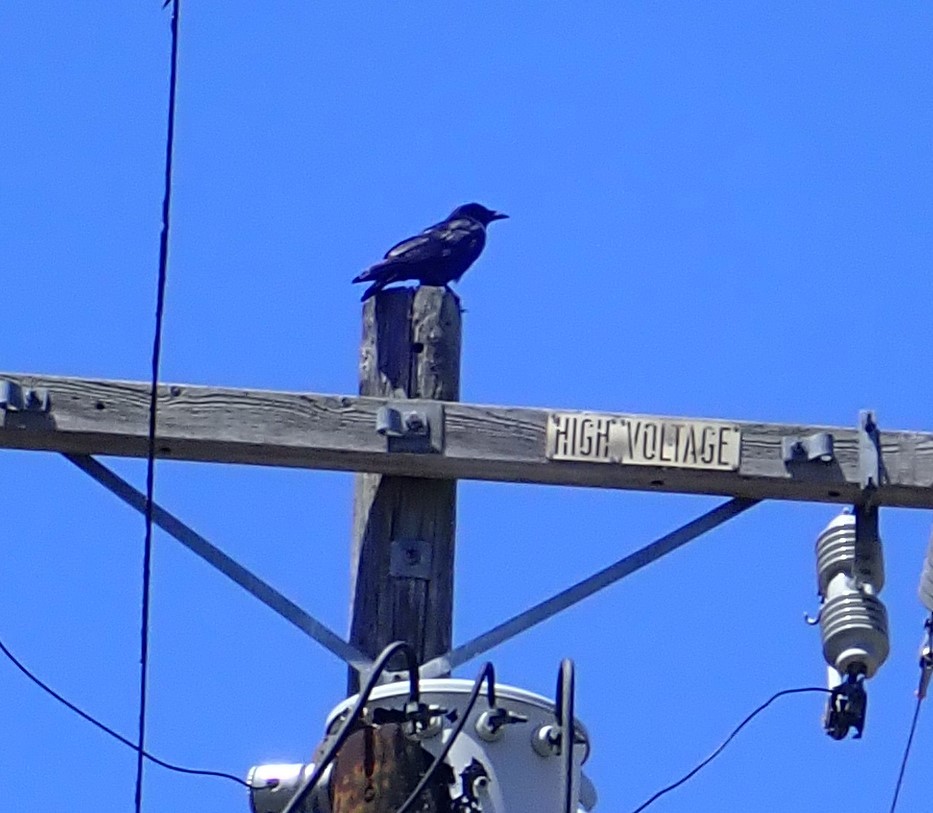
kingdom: Animalia
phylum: Chordata
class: Aves
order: Passeriformes
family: Corvidae
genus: Corvus
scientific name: Corvus brachyrhynchos
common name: American crow
